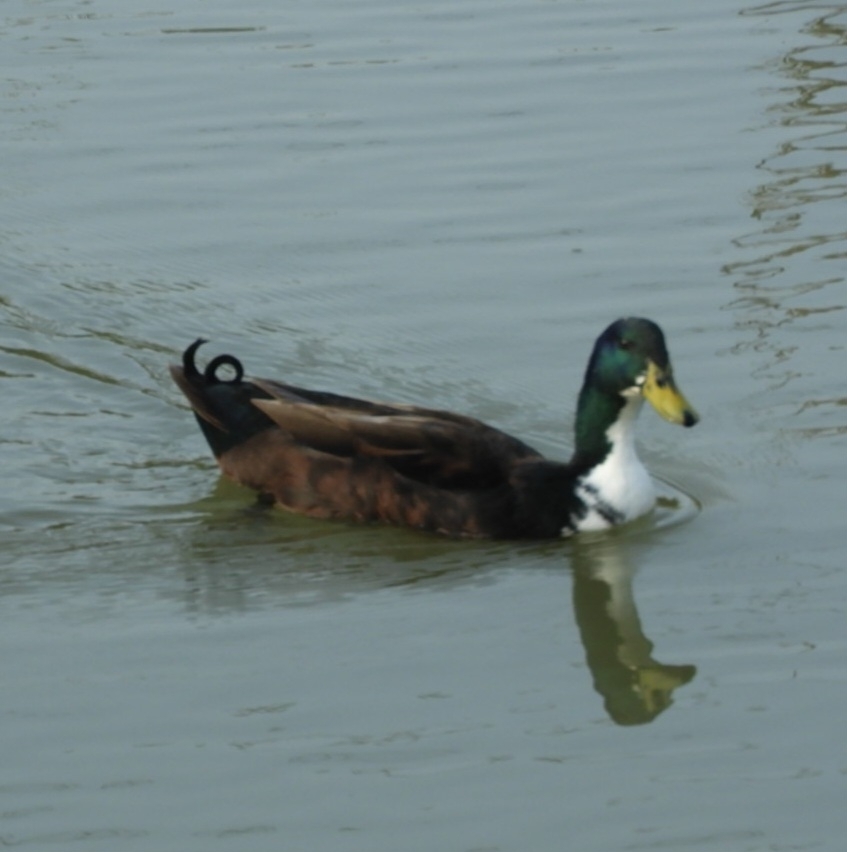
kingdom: Animalia
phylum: Chordata
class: Aves
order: Anseriformes
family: Anatidae
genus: Anas
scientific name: Anas platyrhynchos
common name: Mallard
